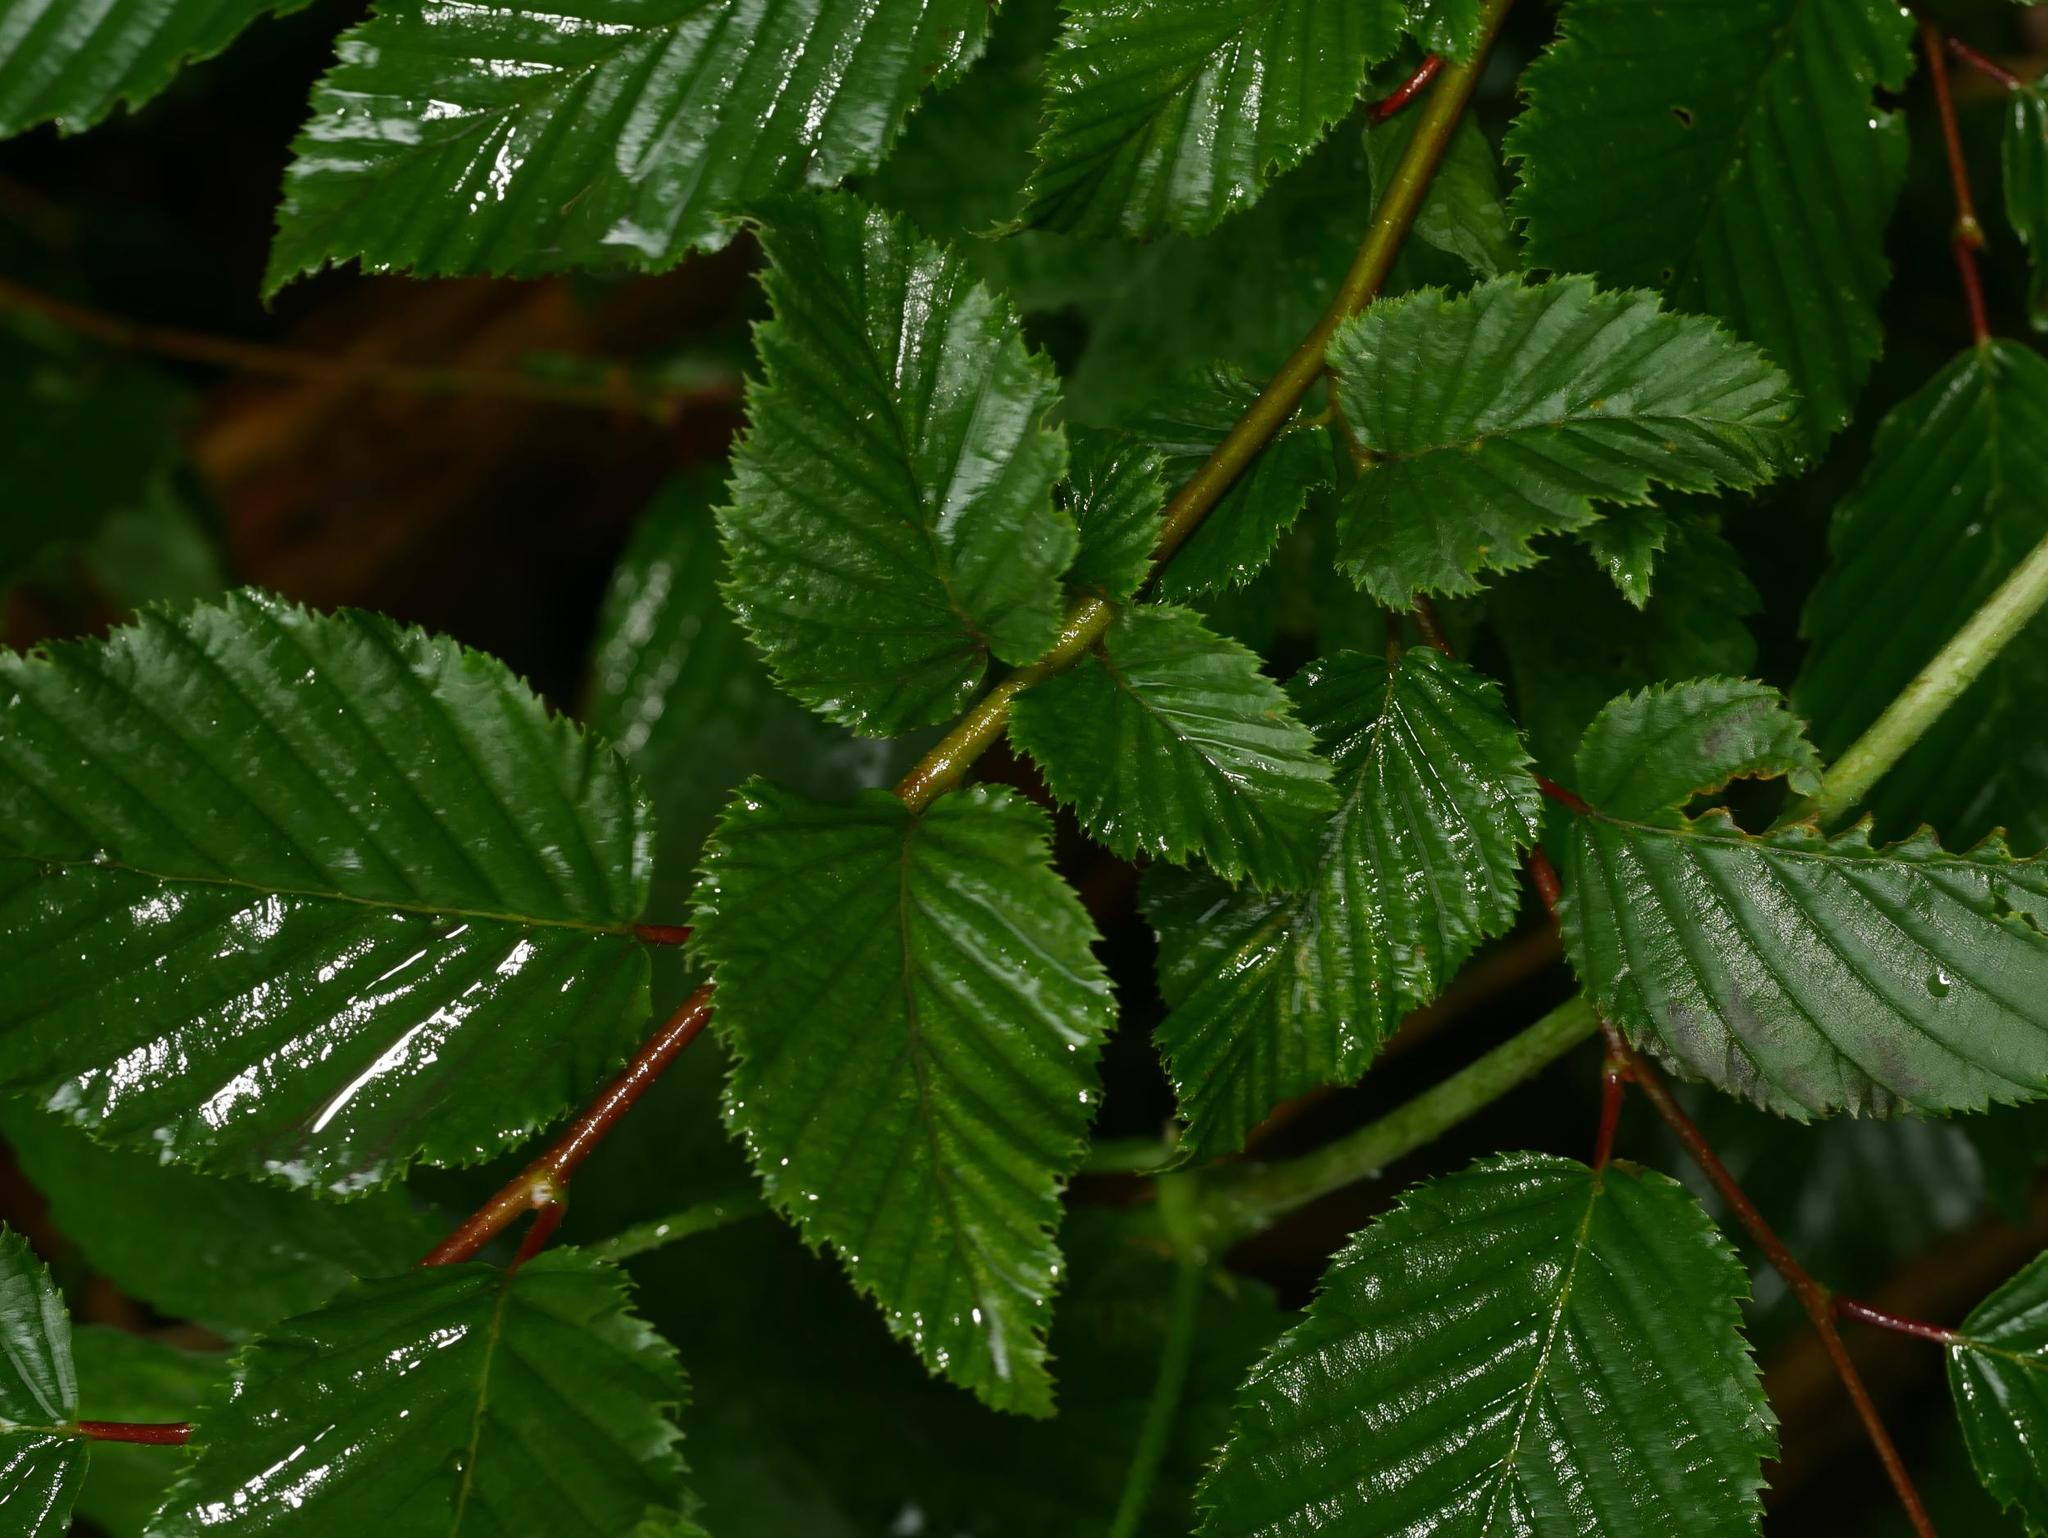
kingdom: Plantae
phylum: Tracheophyta
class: Magnoliopsida
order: Fagales
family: Betulaceae
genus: Carpinus
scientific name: Carpinus betulus
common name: Hornbeam
